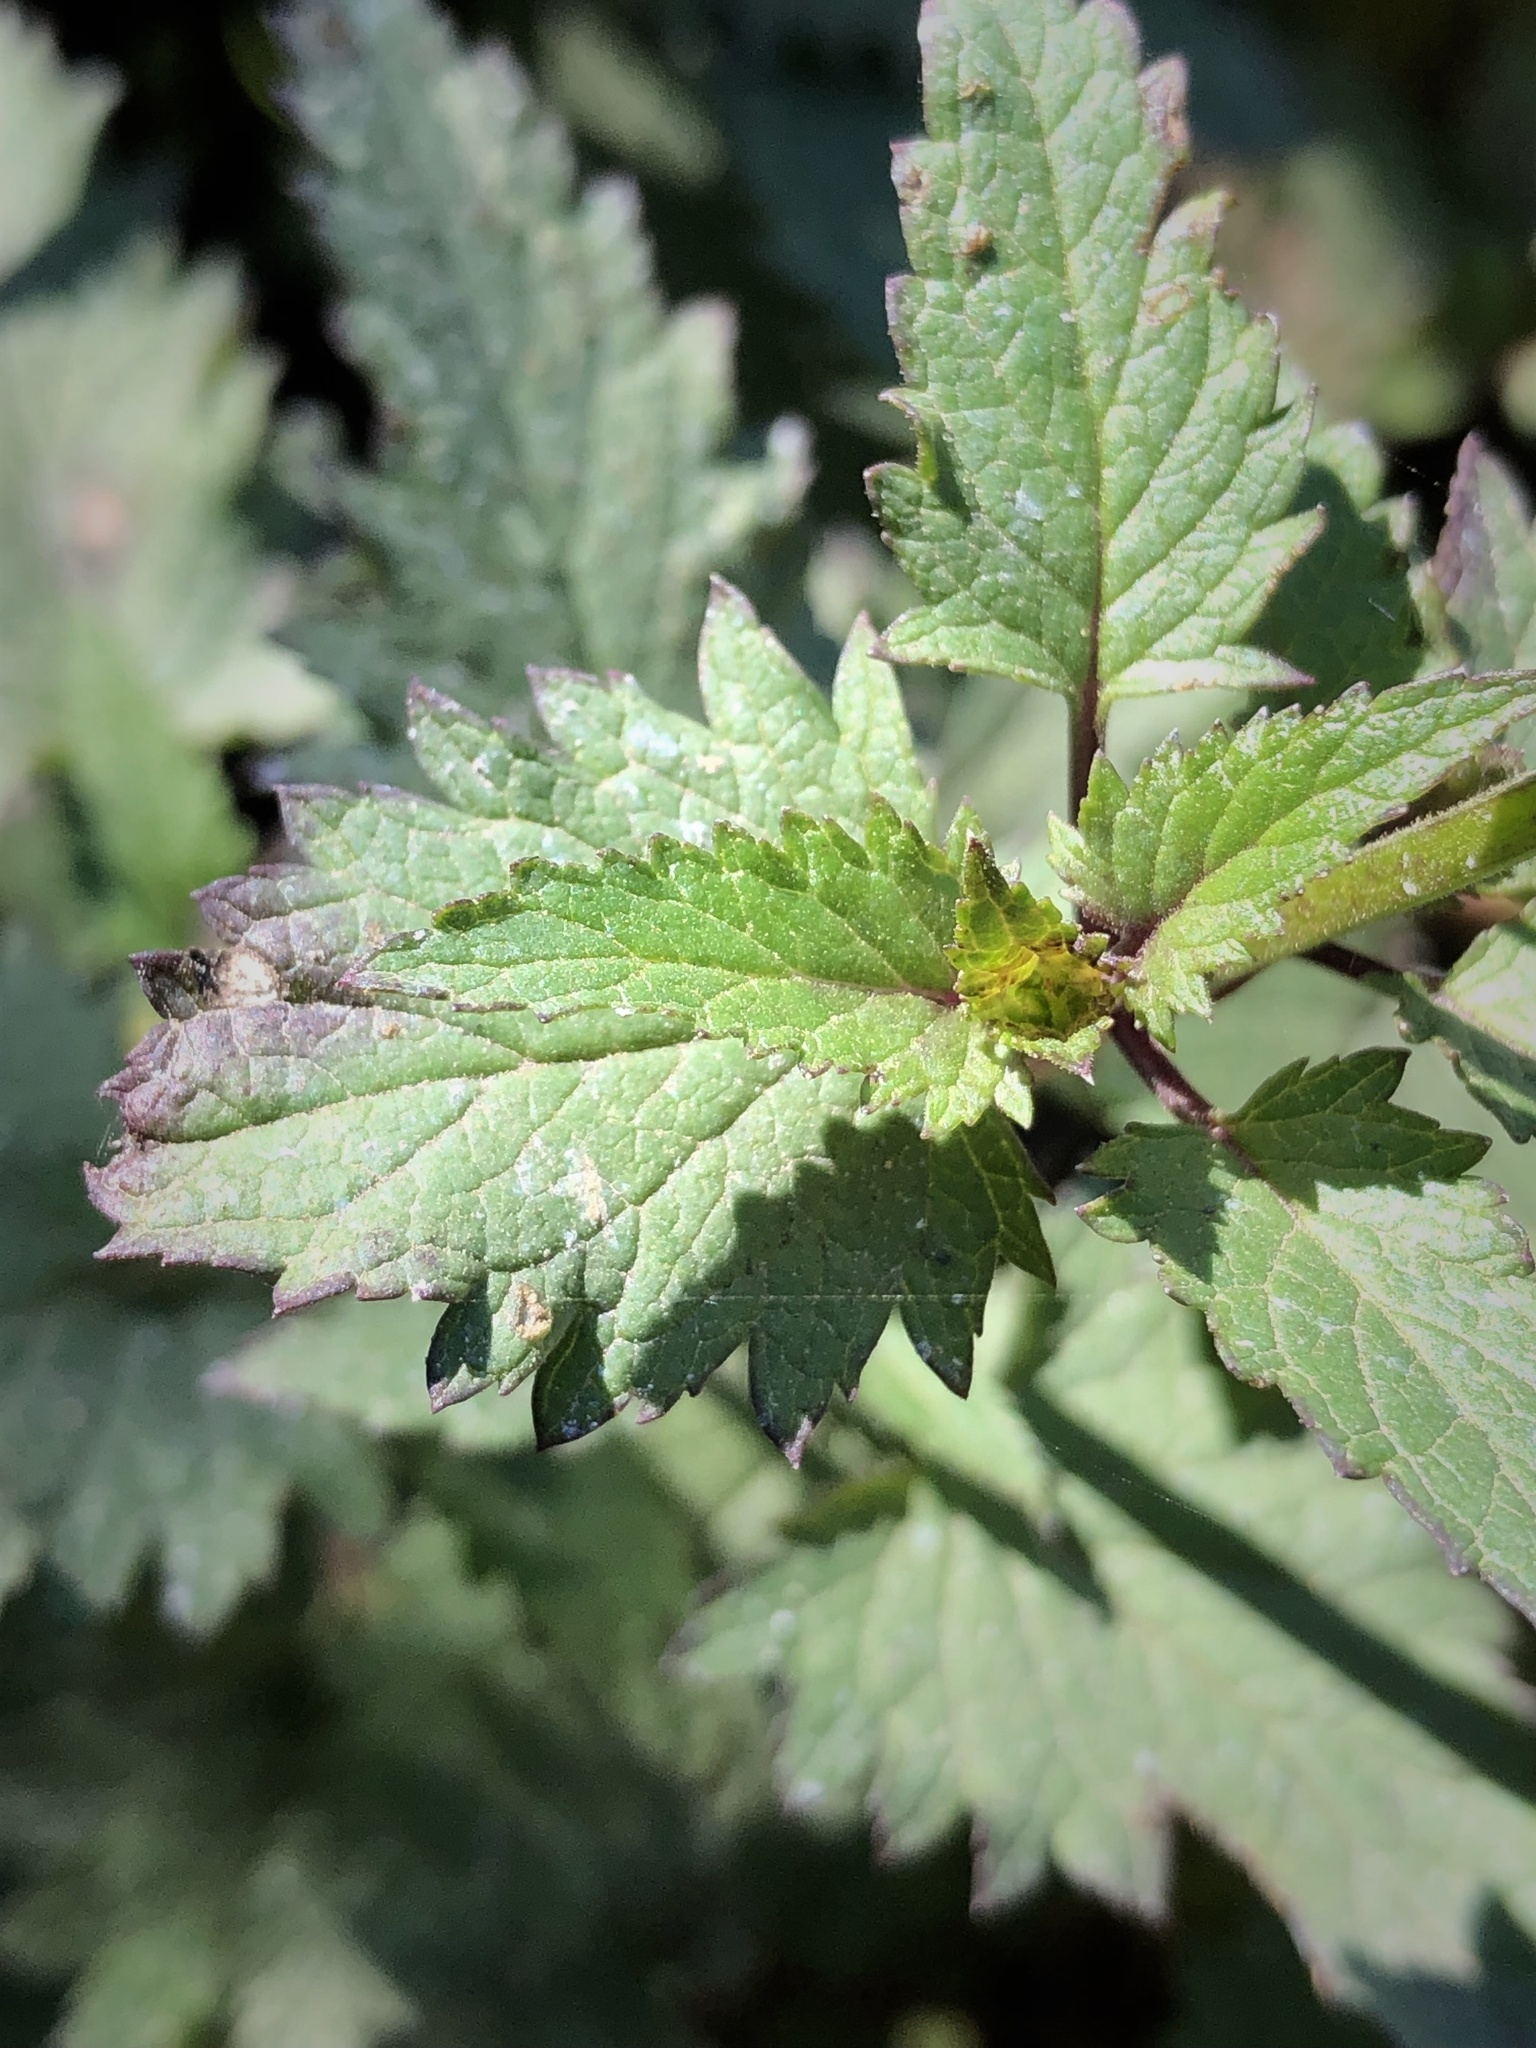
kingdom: Plantae
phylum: Tracheophyta
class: Magnoliopsida
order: Lamiales
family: Scrophulariaceae
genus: Scrophularia
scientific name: Scrophularia californica
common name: California figwort
